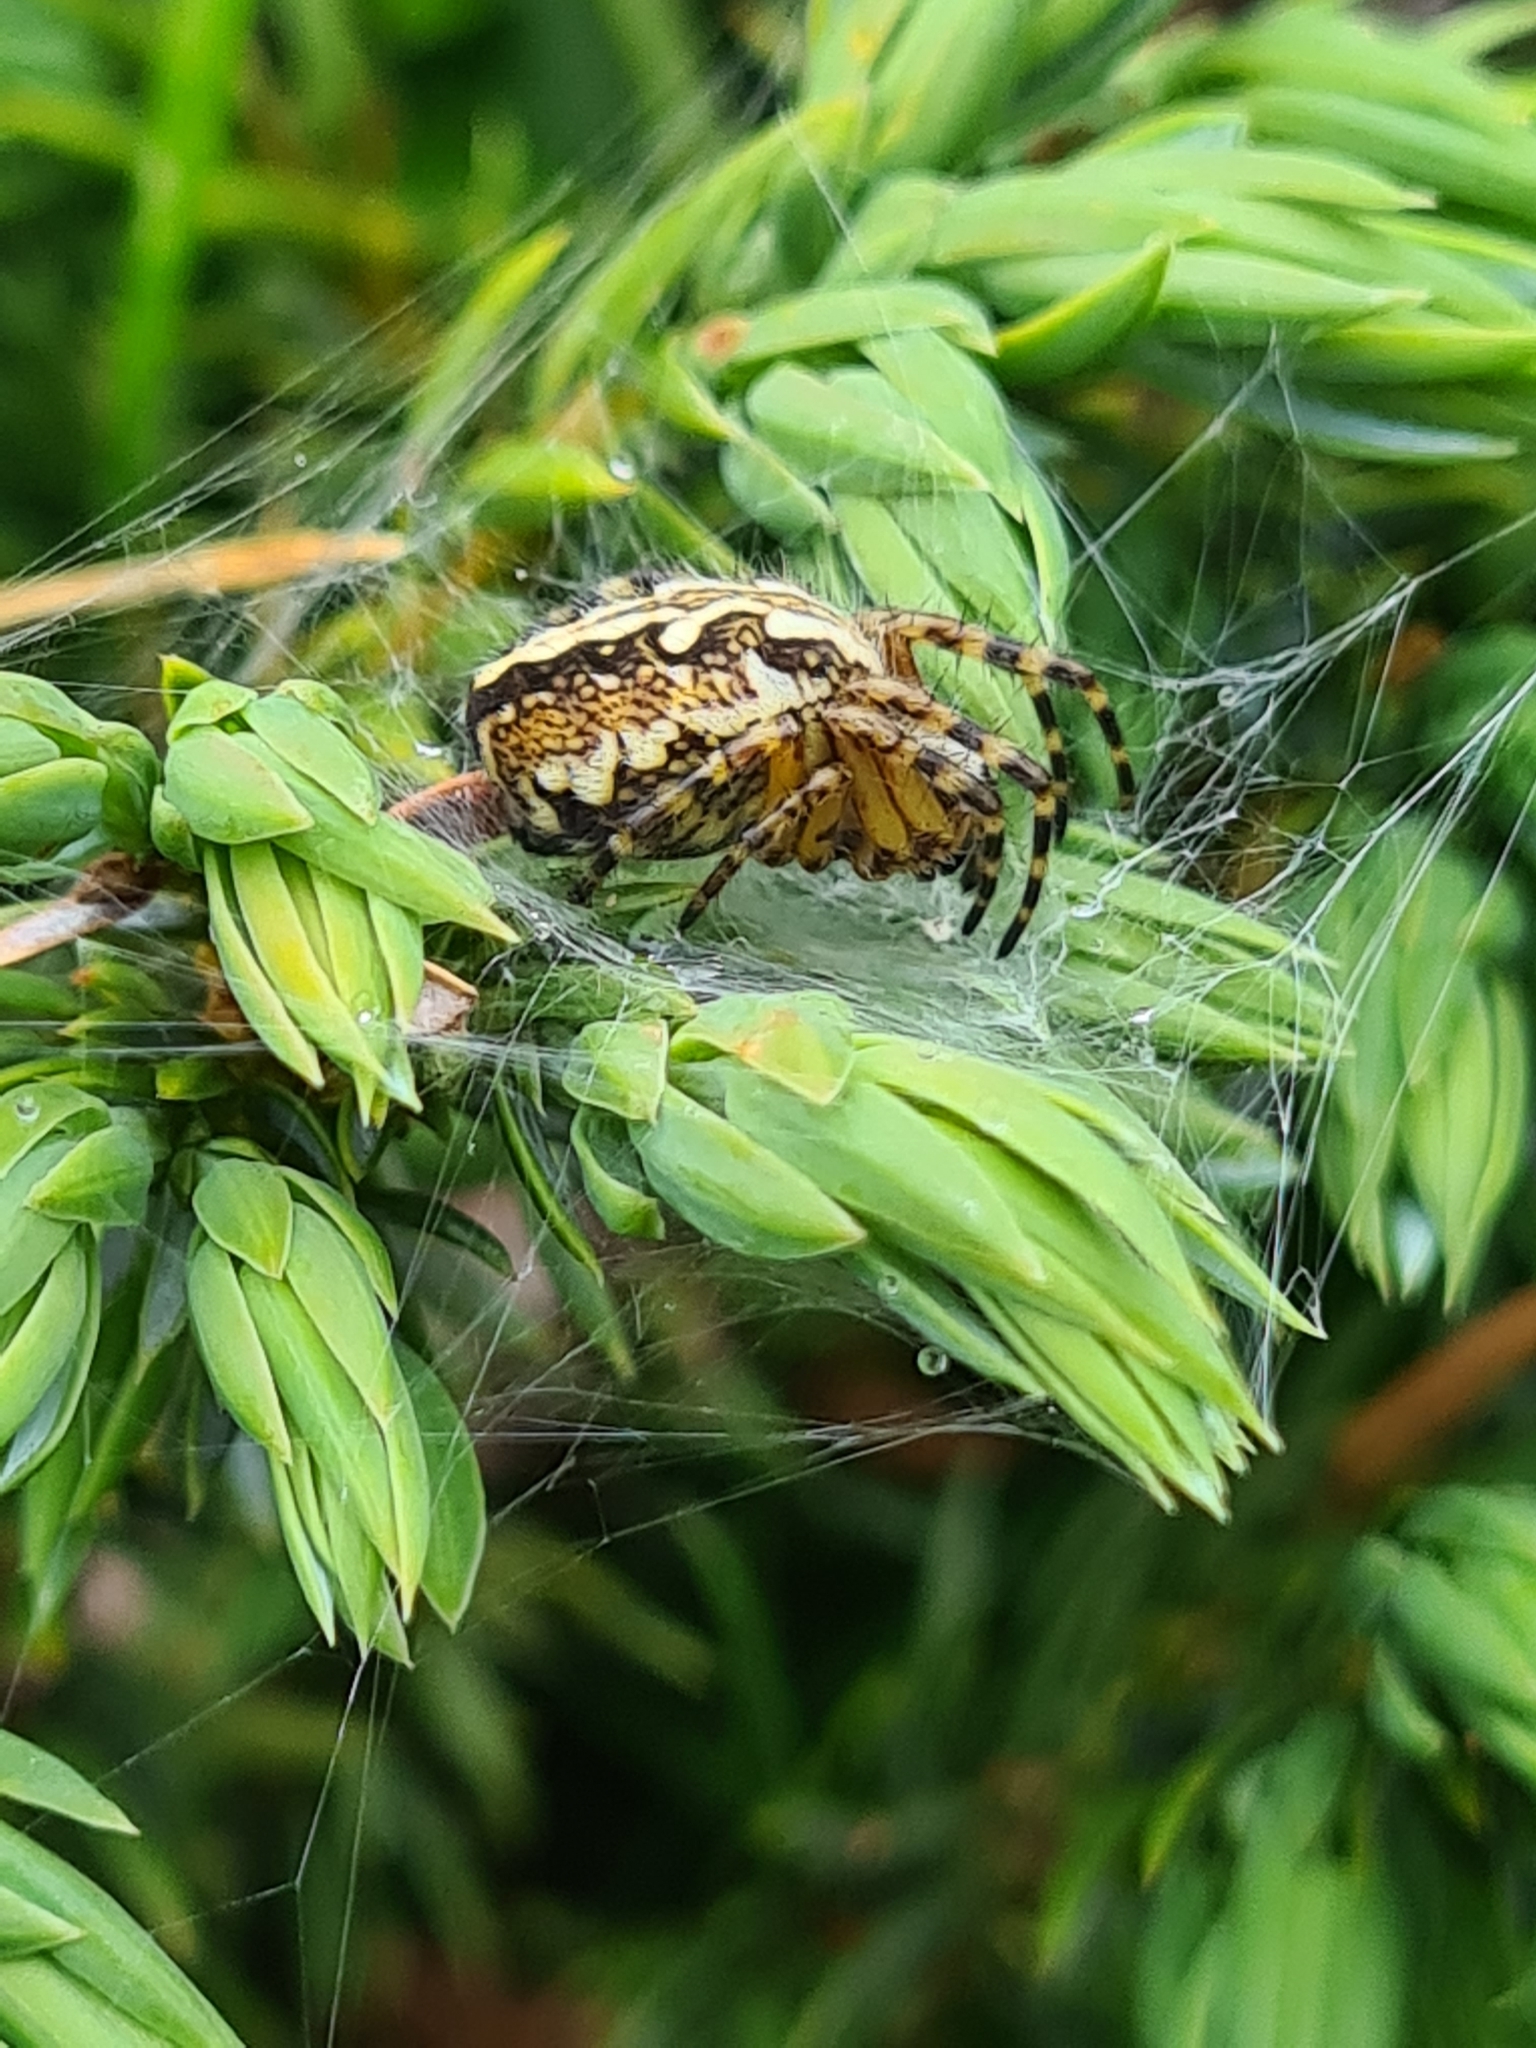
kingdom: Animalia
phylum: Arthropoda
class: Arachnida
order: Araneae
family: Araneidae
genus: Aculepeira
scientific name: Aculepeira ceropegia
